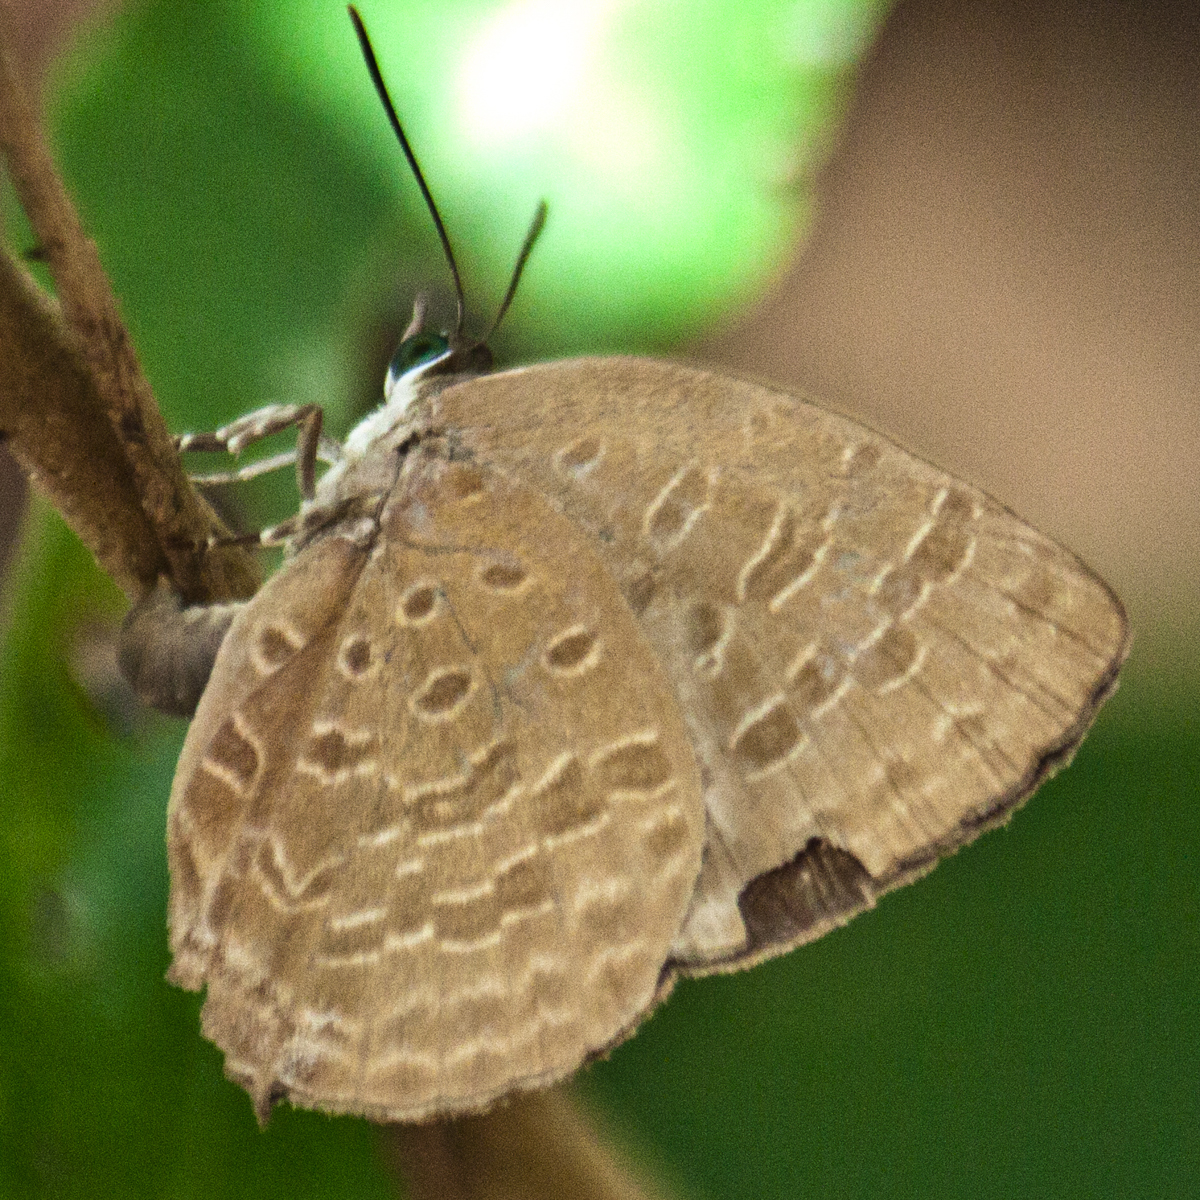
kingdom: Animalia
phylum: Arthropoda
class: Insecta
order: Lepidoptera
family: Lycaenidae
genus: Arhopala
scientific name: Arhopala aida
